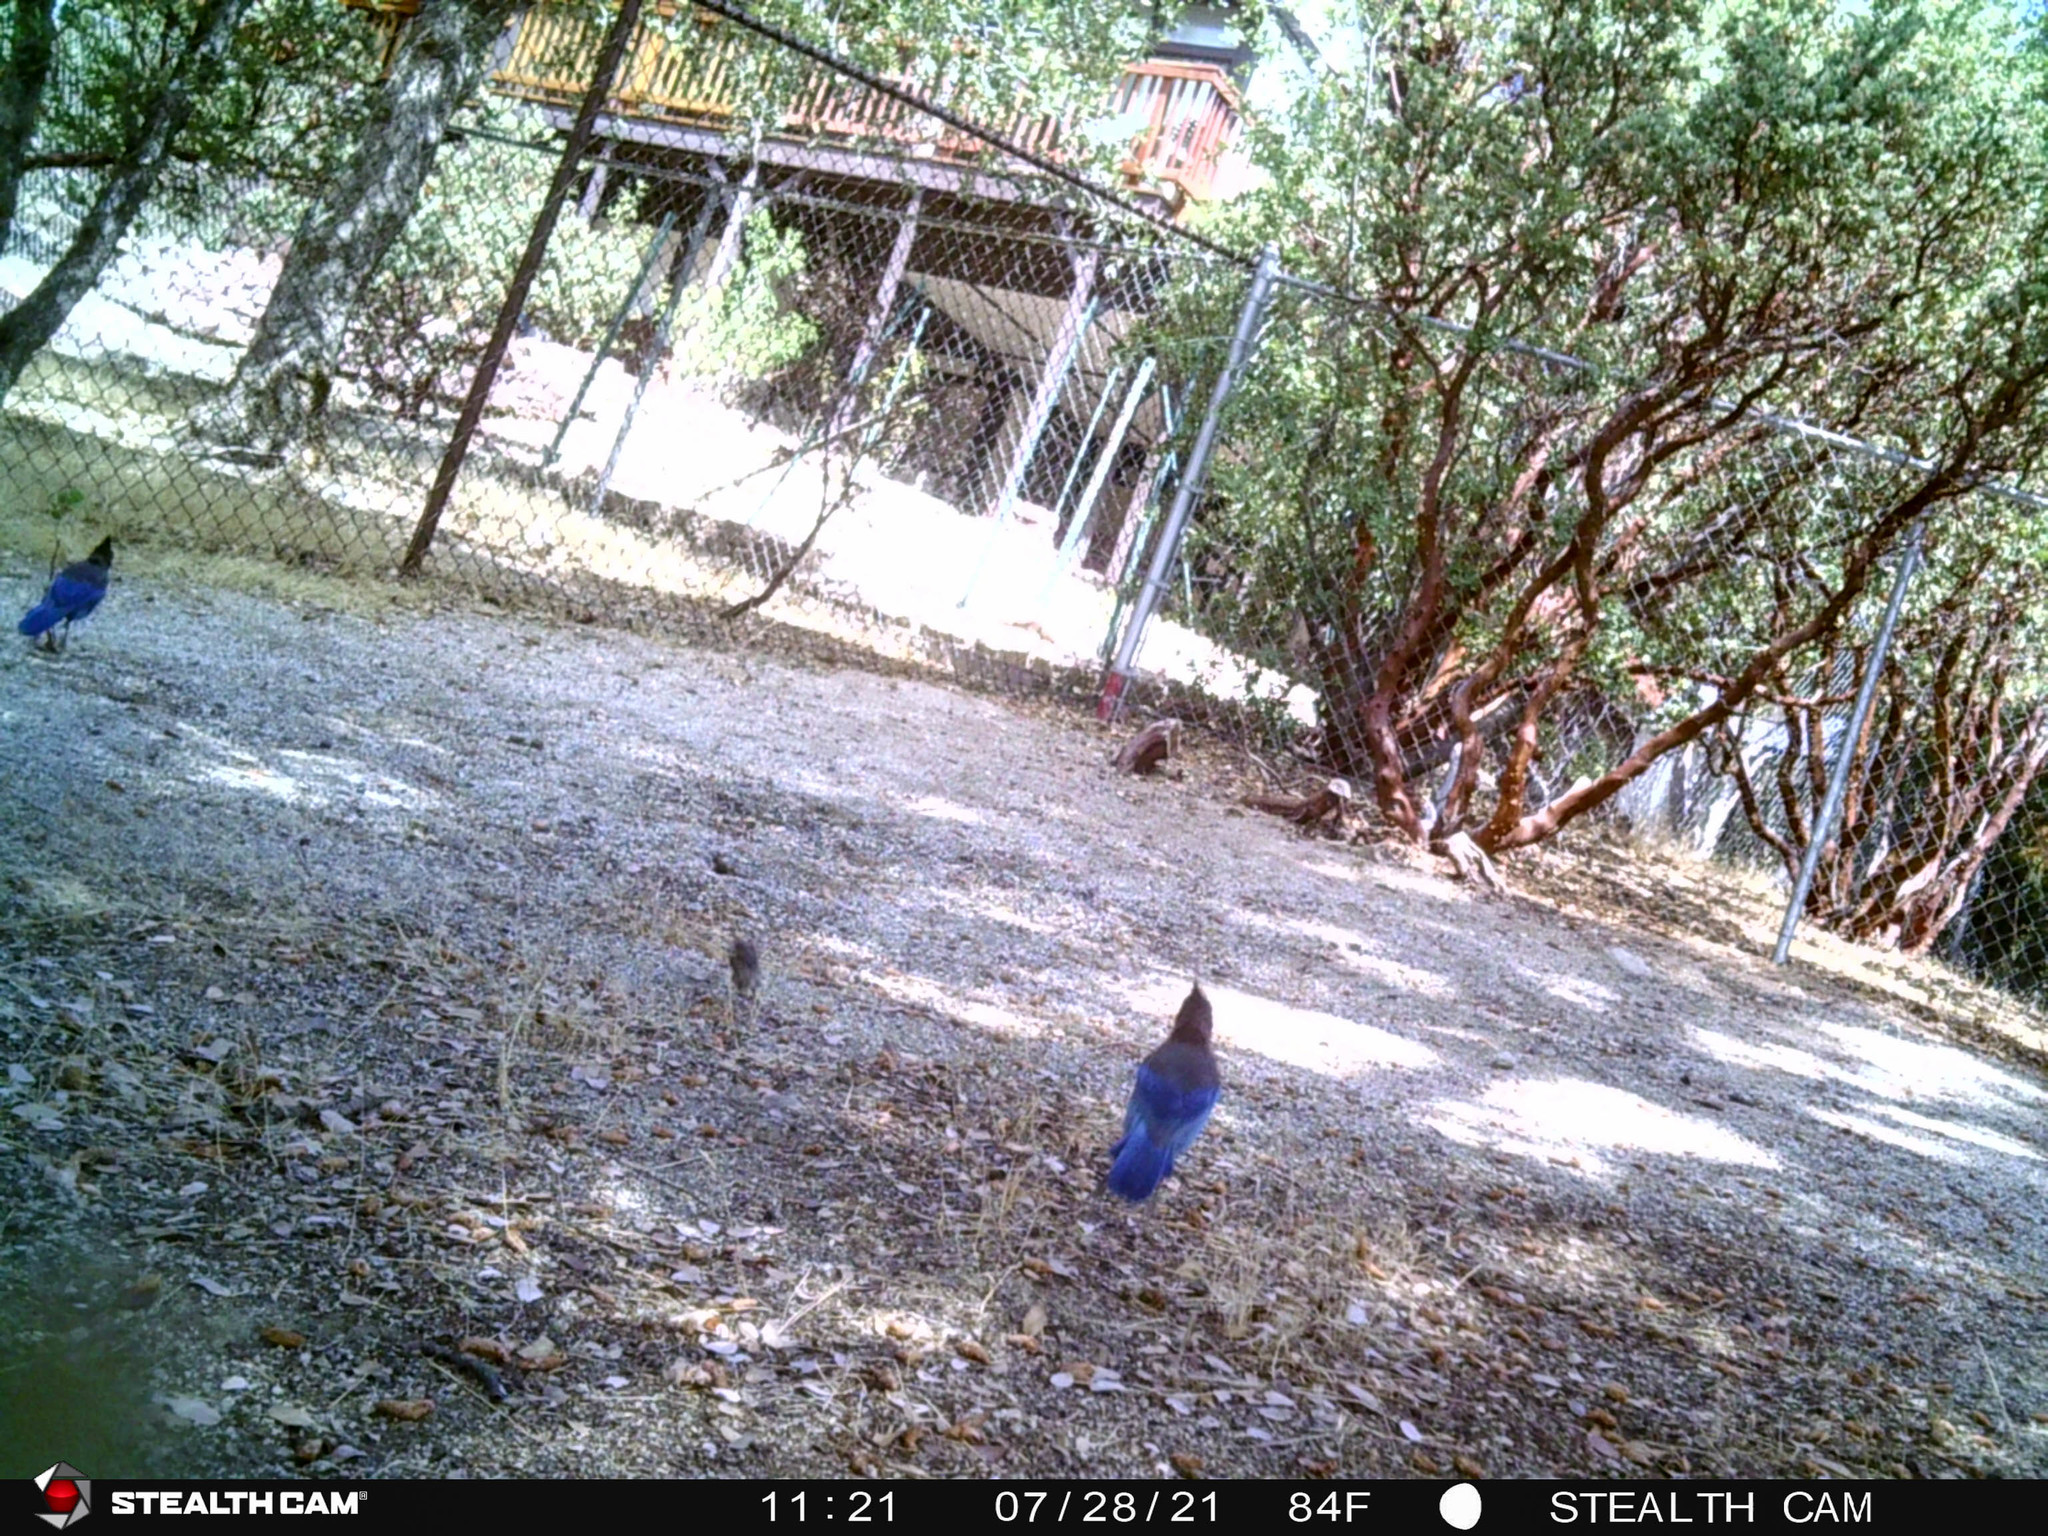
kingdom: Animalia
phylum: Chordata
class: Aves
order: Passeriformes
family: Corvidae
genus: Cyanocitta
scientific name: Cyanocitta stelleri
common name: Steller's jay
